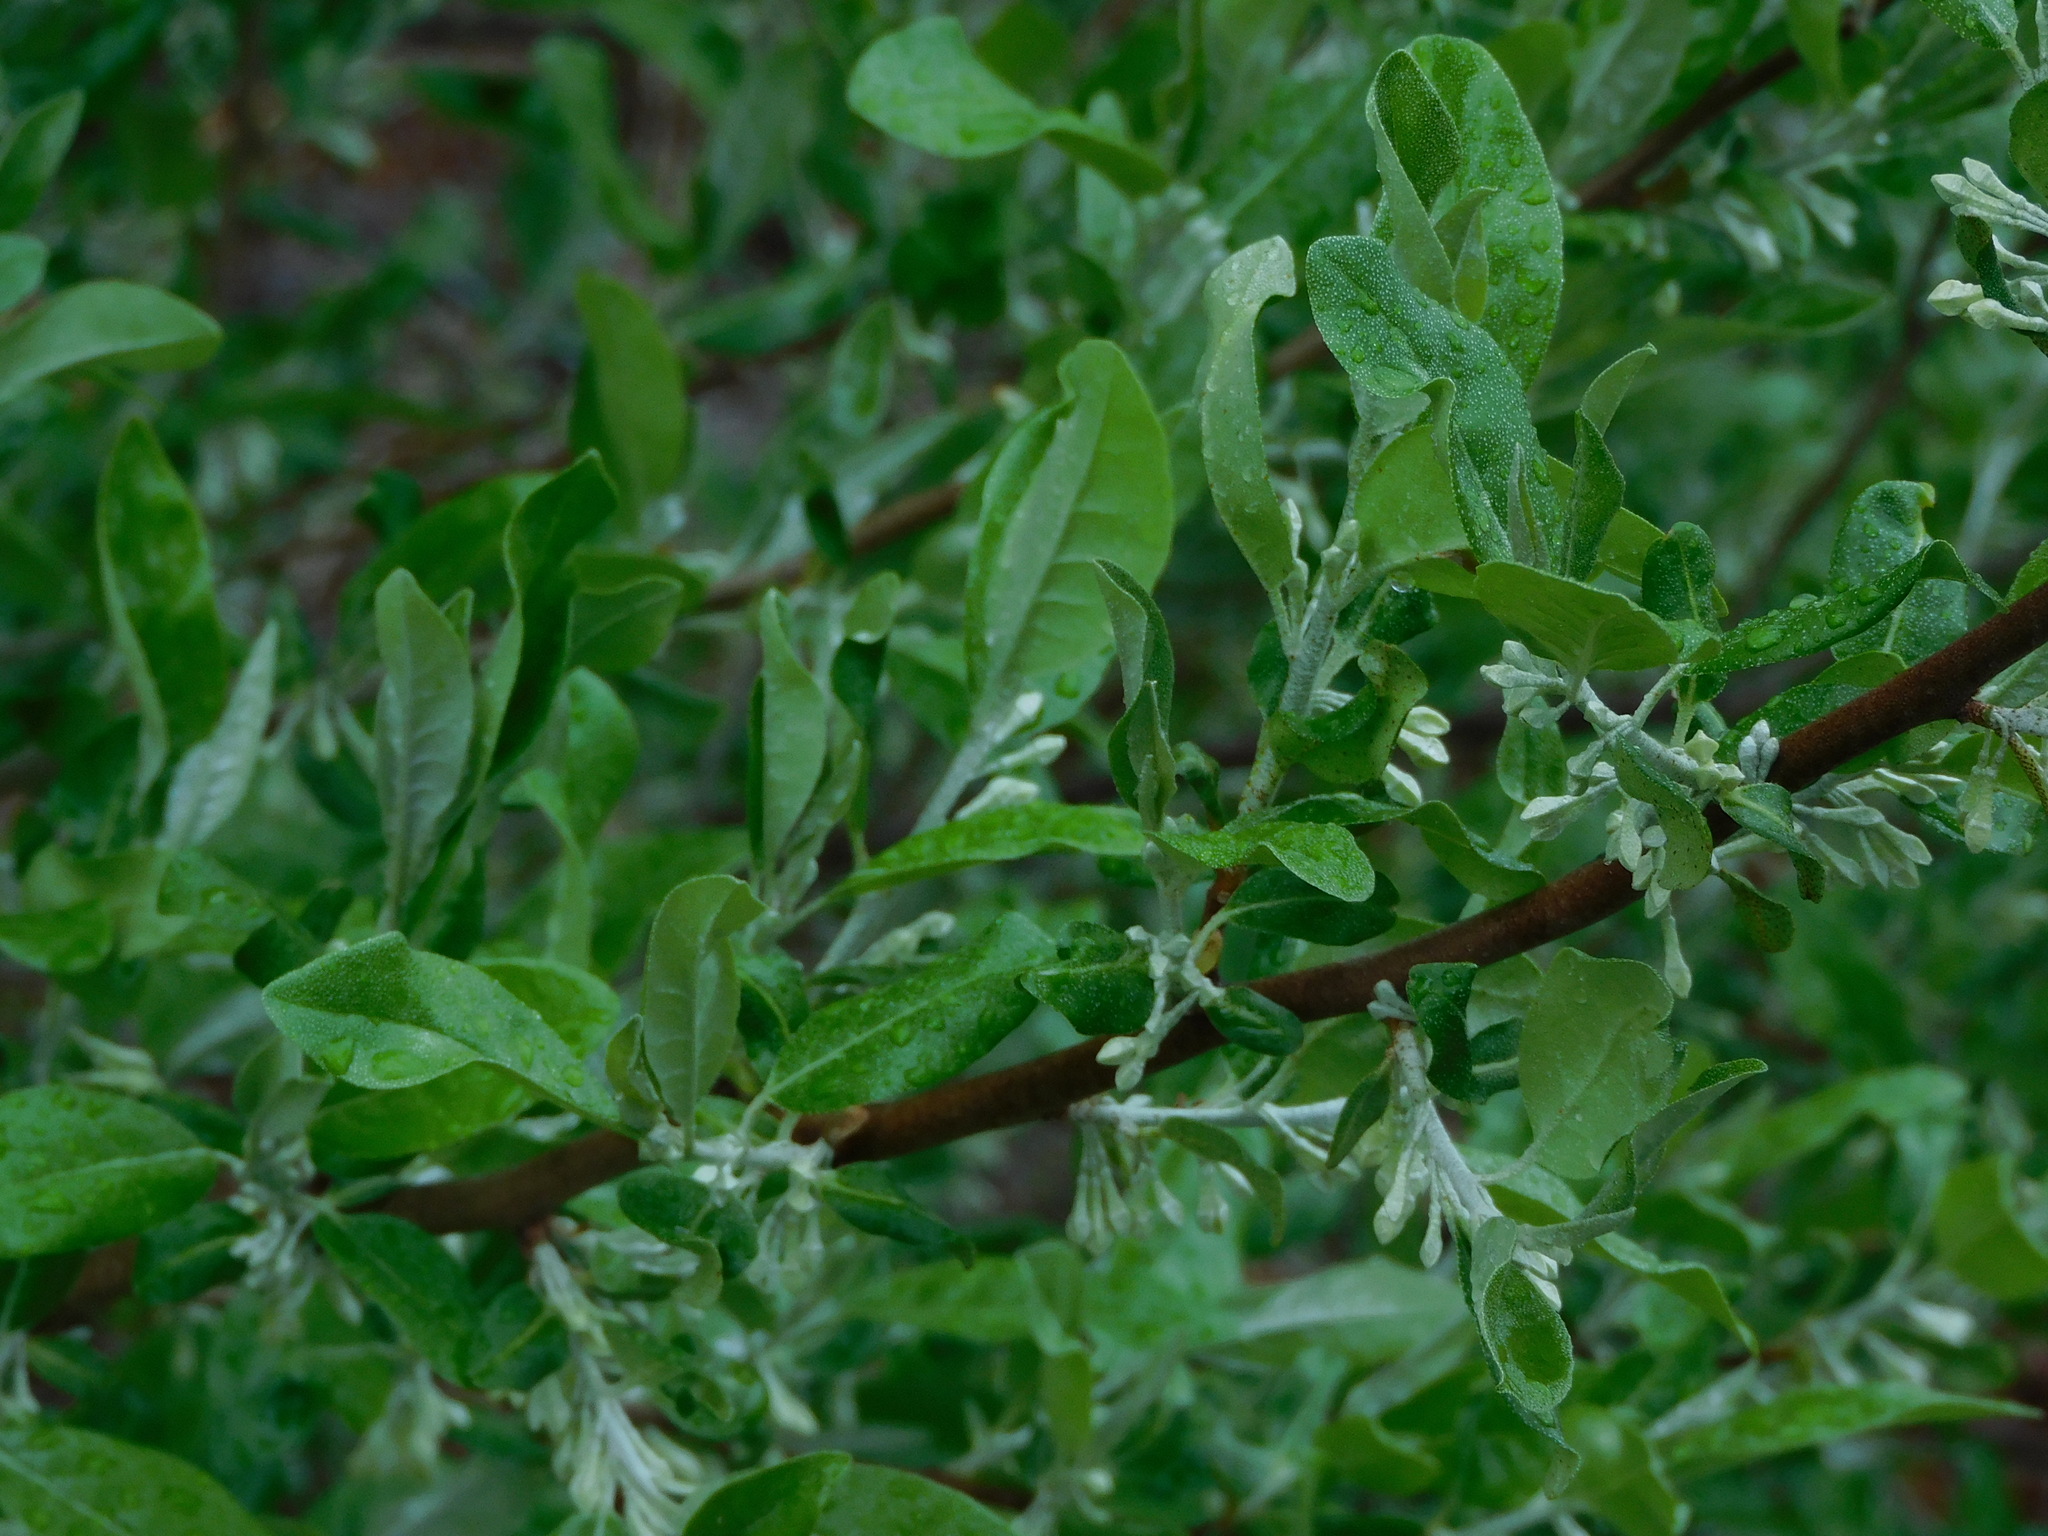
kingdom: Plantae
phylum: Tracheophyta
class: Magnoliopsida
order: Rosales
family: Elaeagnaceae
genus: Elaeagnus
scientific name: Elaeagnus umbellata
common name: Autumn olive
